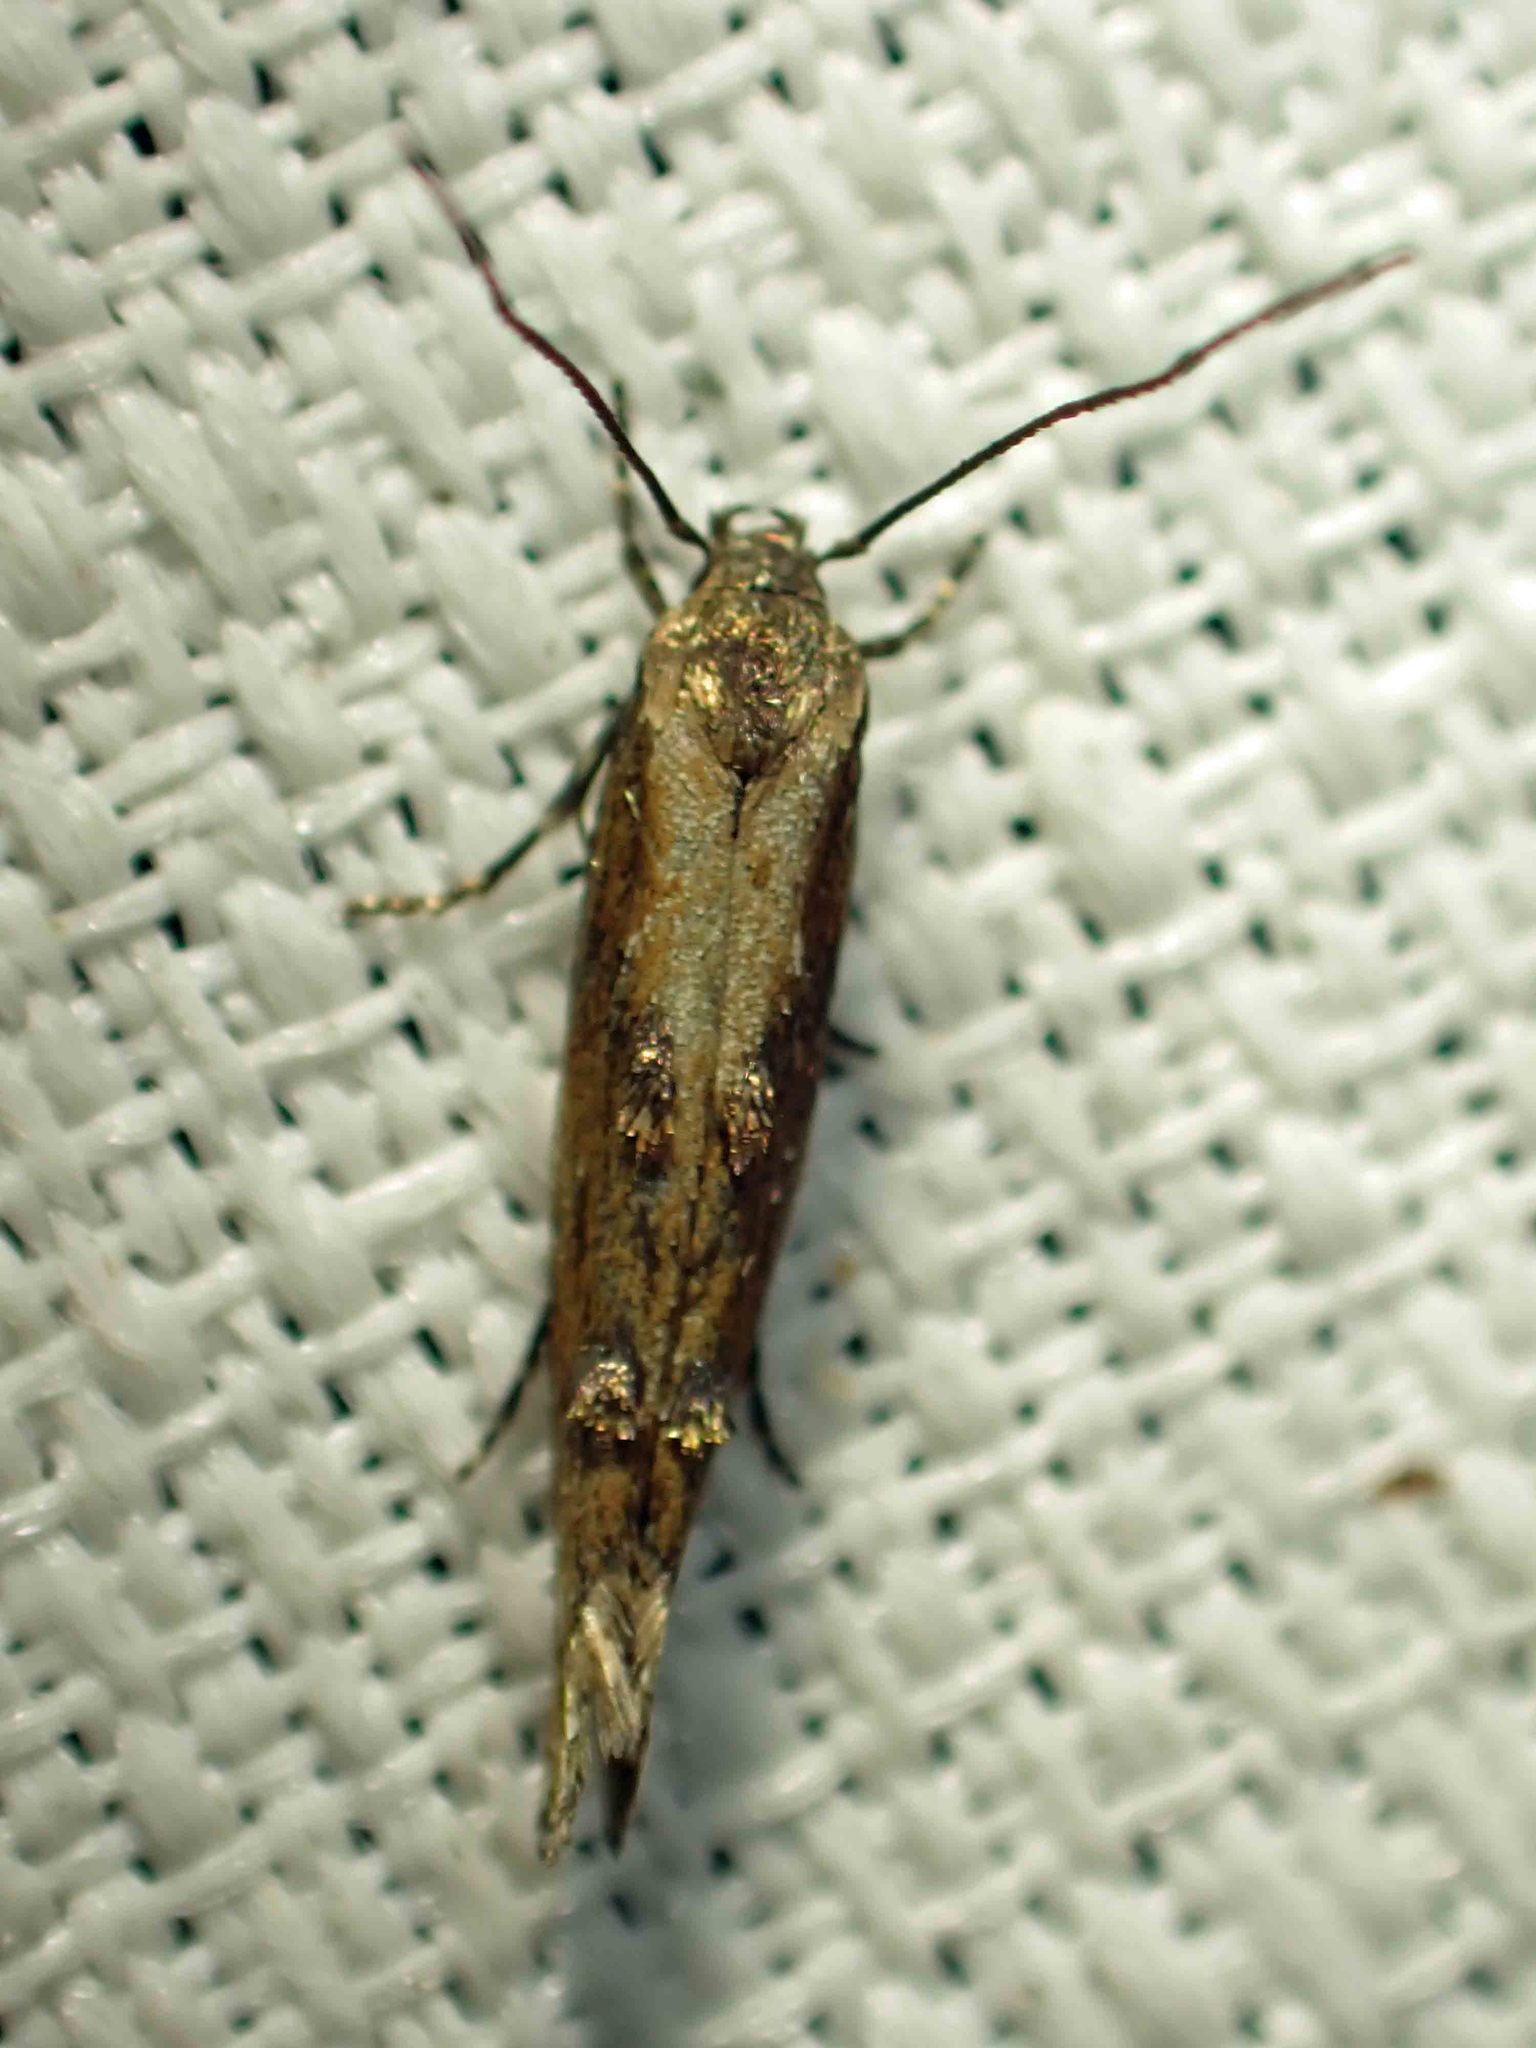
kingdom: Animalia
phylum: Arthropoda
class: Insecta
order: Lepidoptera
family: Momphidae
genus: Mompha
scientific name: Mompha idaei
